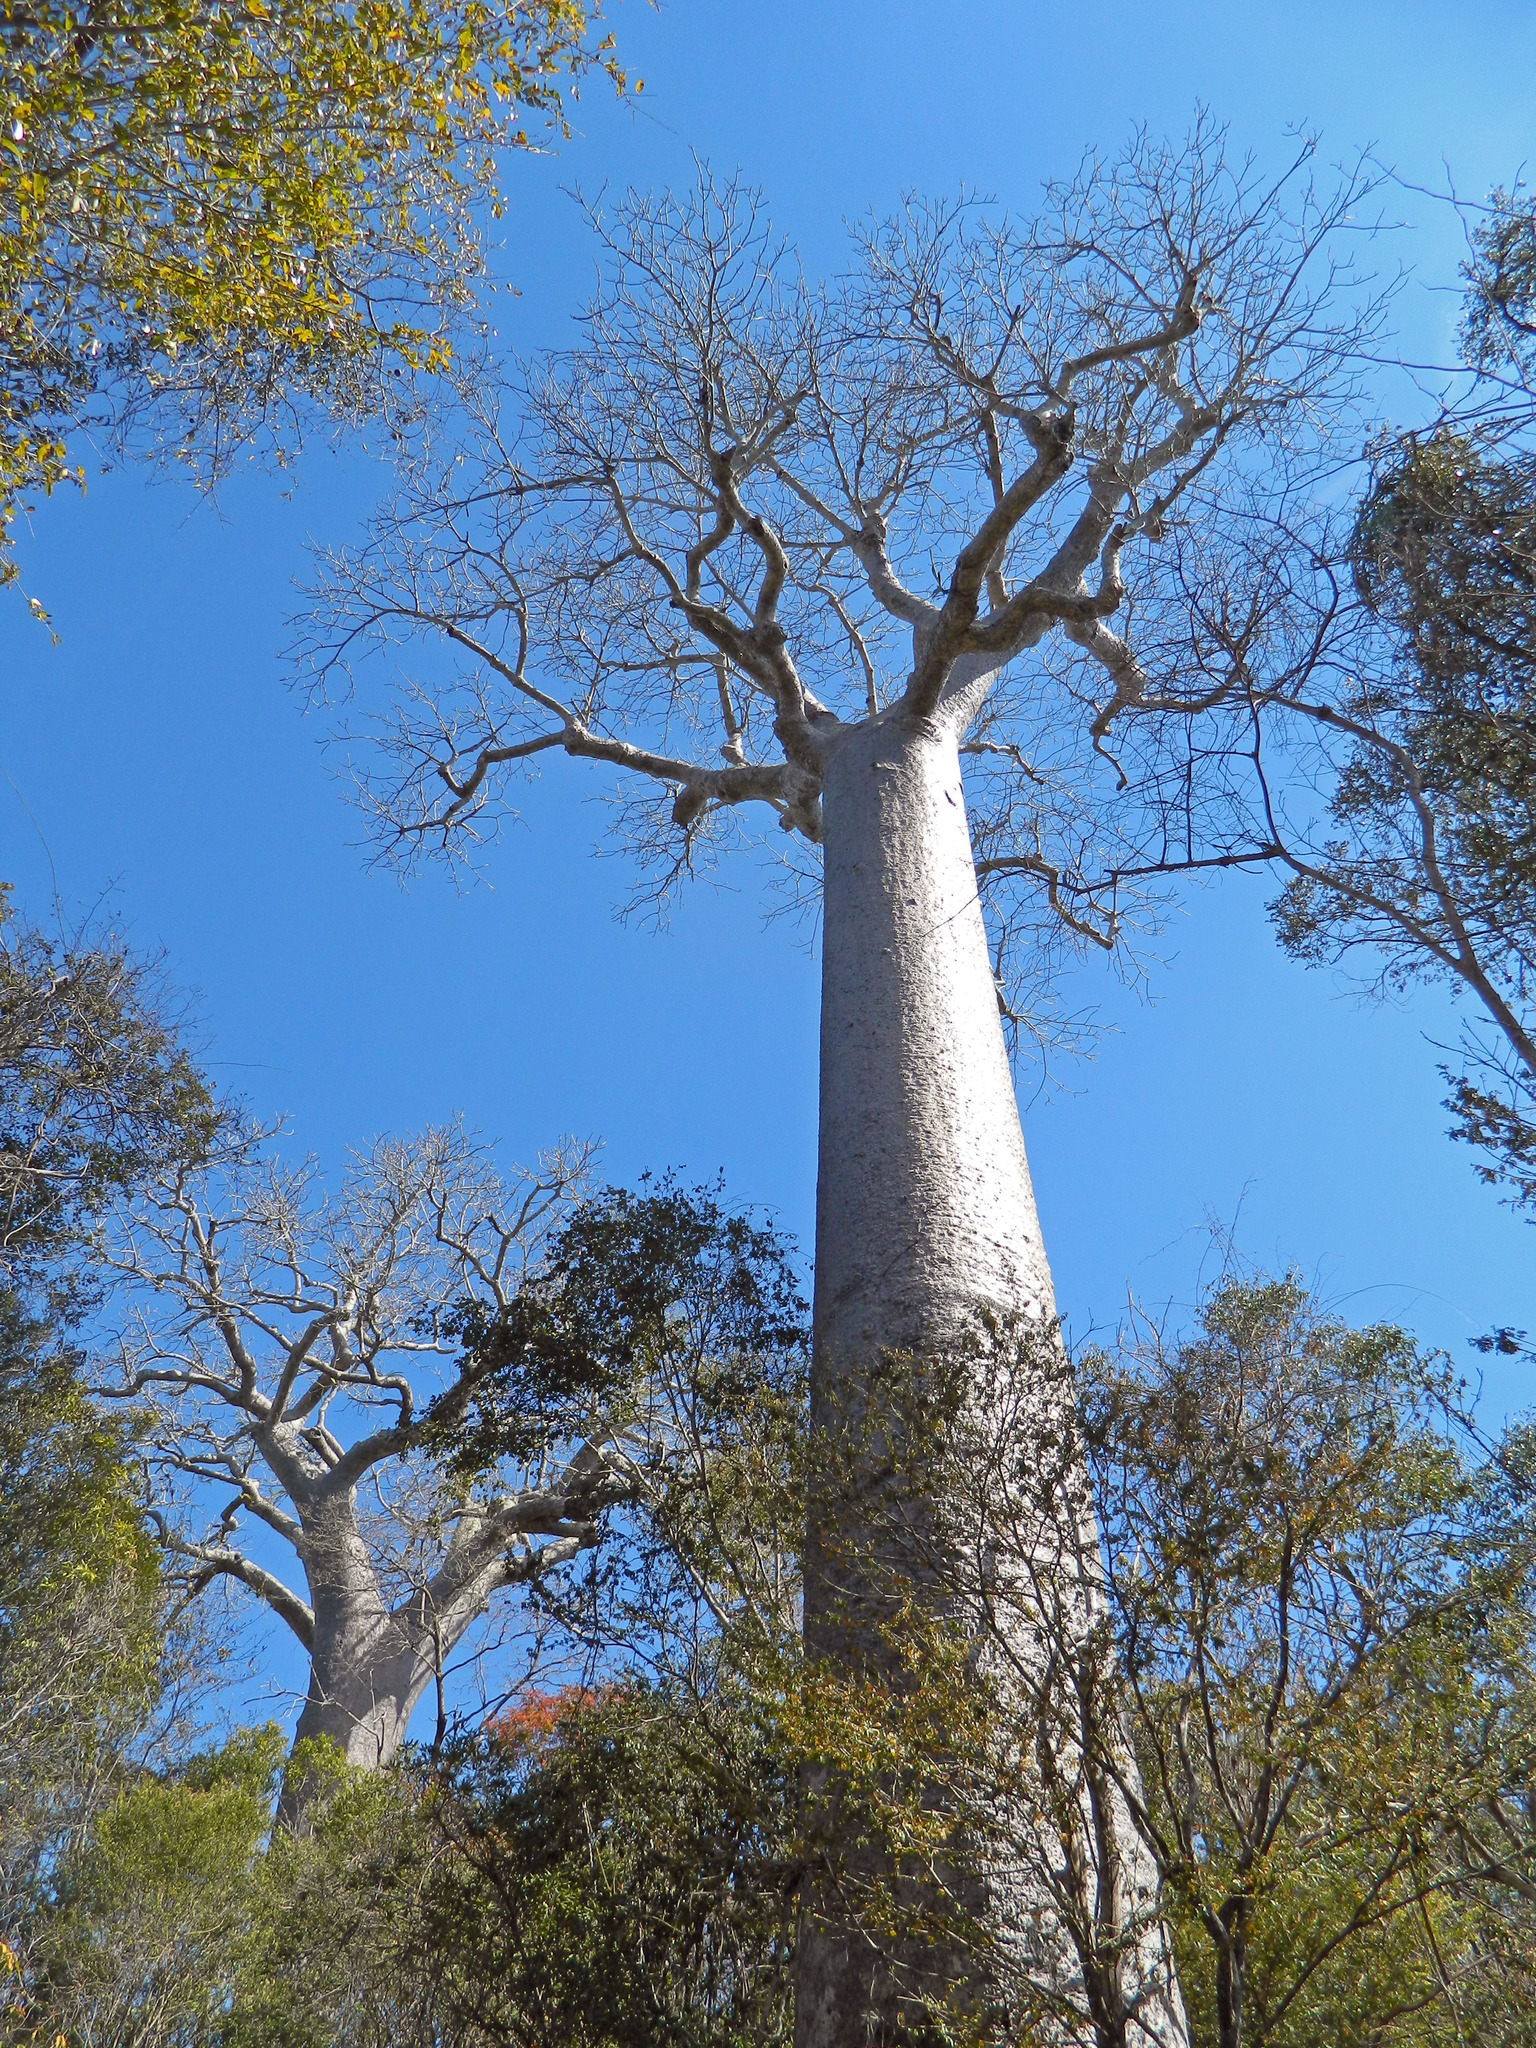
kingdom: Plantae
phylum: Tracheophyta
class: Magnoliopsida
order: Malvales
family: Malvaceae
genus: Adansonia
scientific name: Adansonia za
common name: Za baobab
